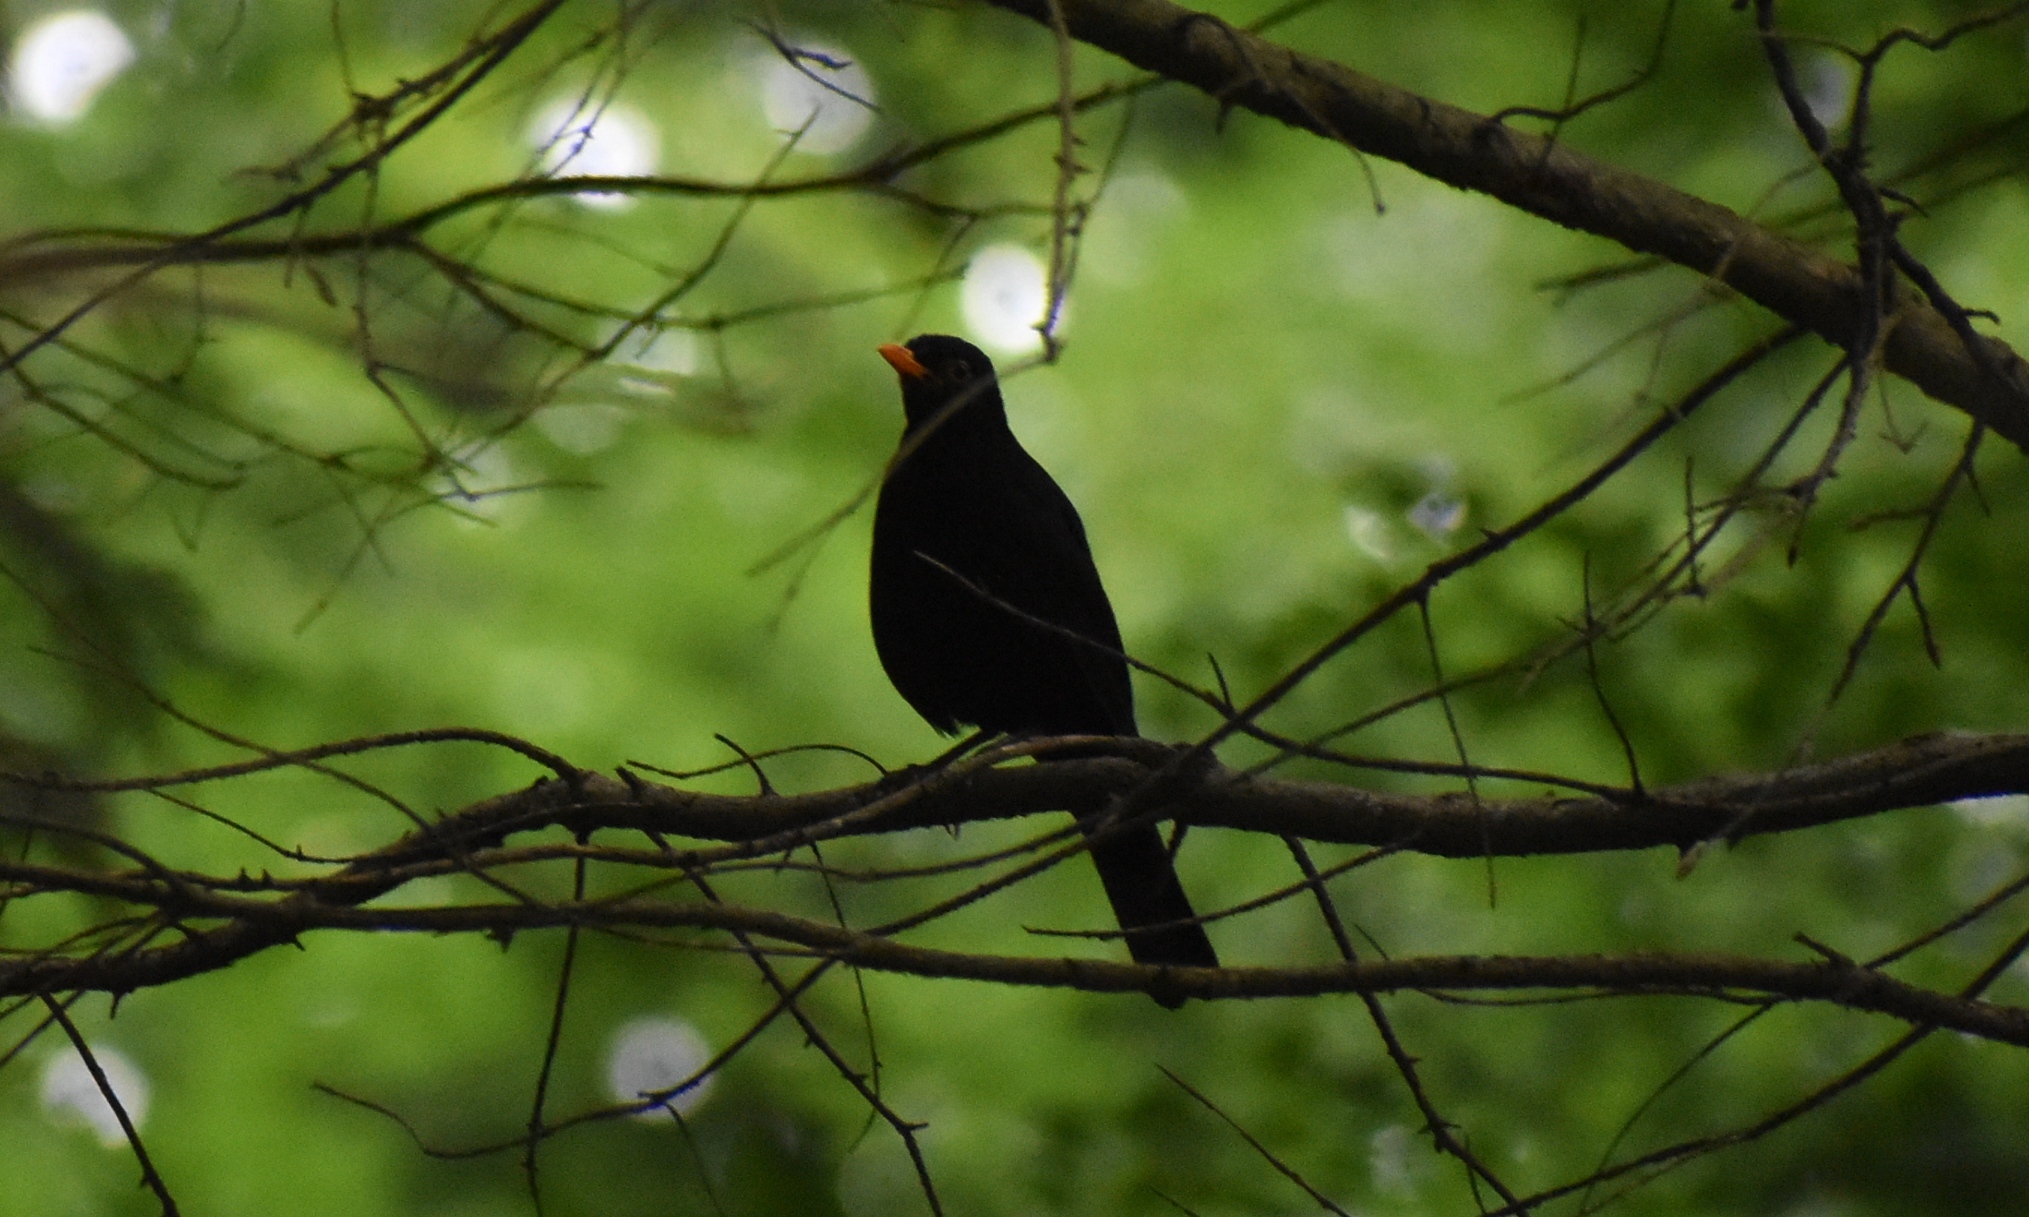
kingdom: Animalia
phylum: Chordata
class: Aves
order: Passeriformes
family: Turdidae
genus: Turdus
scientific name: Turdus merula
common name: Common blackbird
